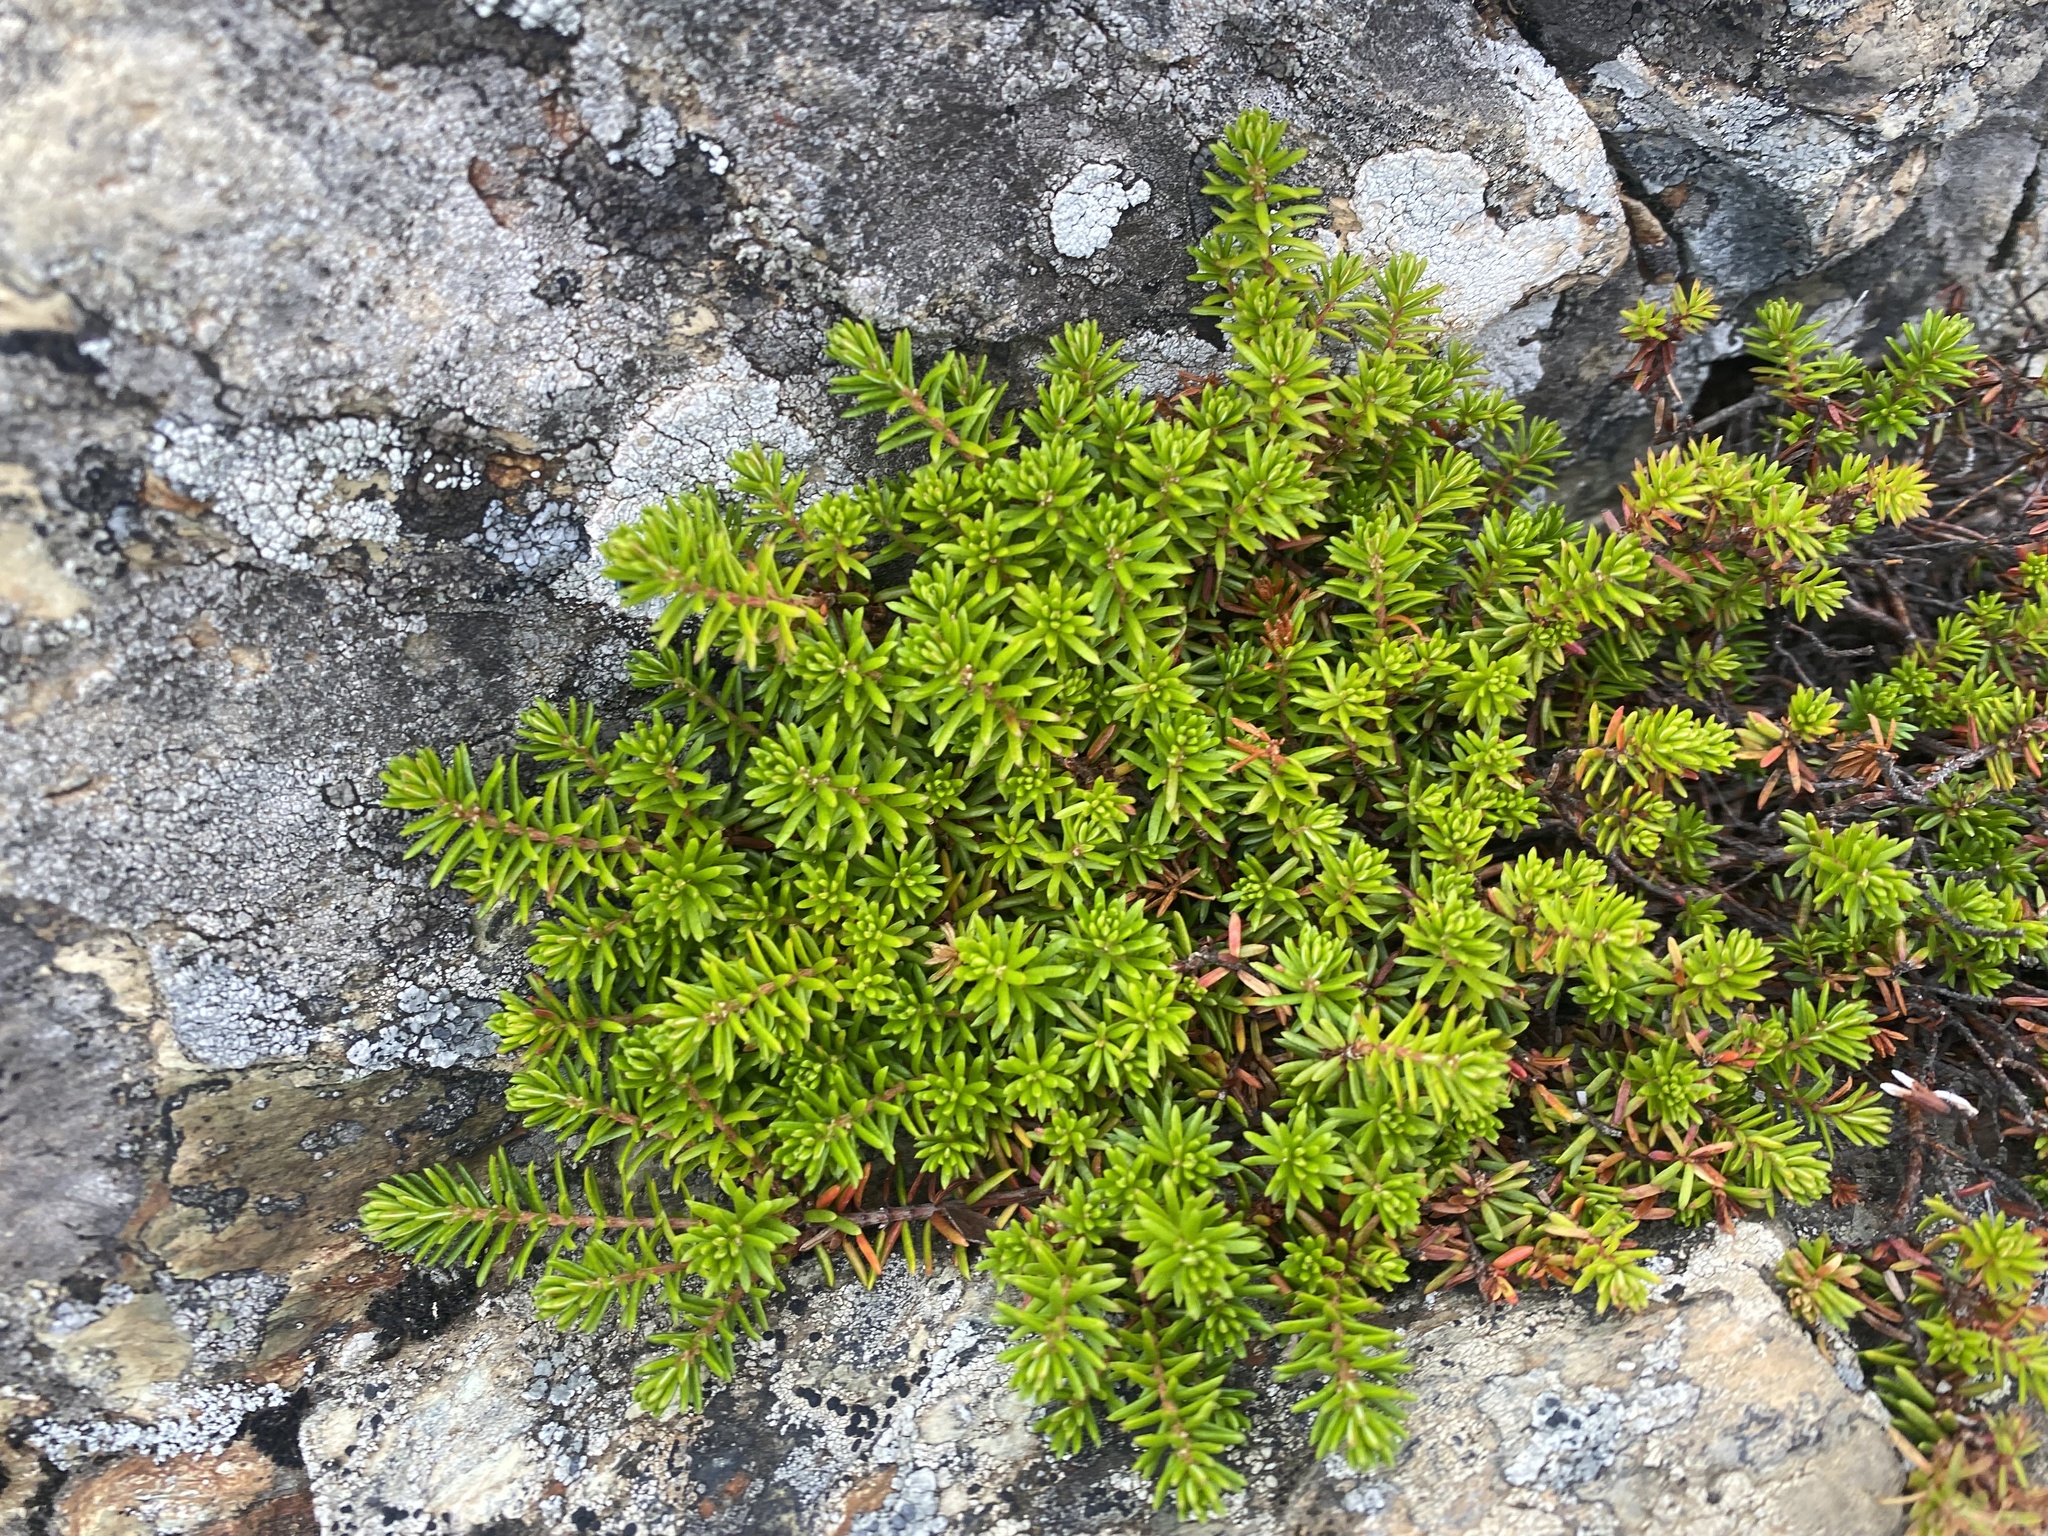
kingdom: Plantae
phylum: Tracheophyta
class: Magnoliopsida
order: Ericales
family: Ericaceae
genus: Empetrum
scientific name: Empetrum nigrum
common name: Black crowberry
